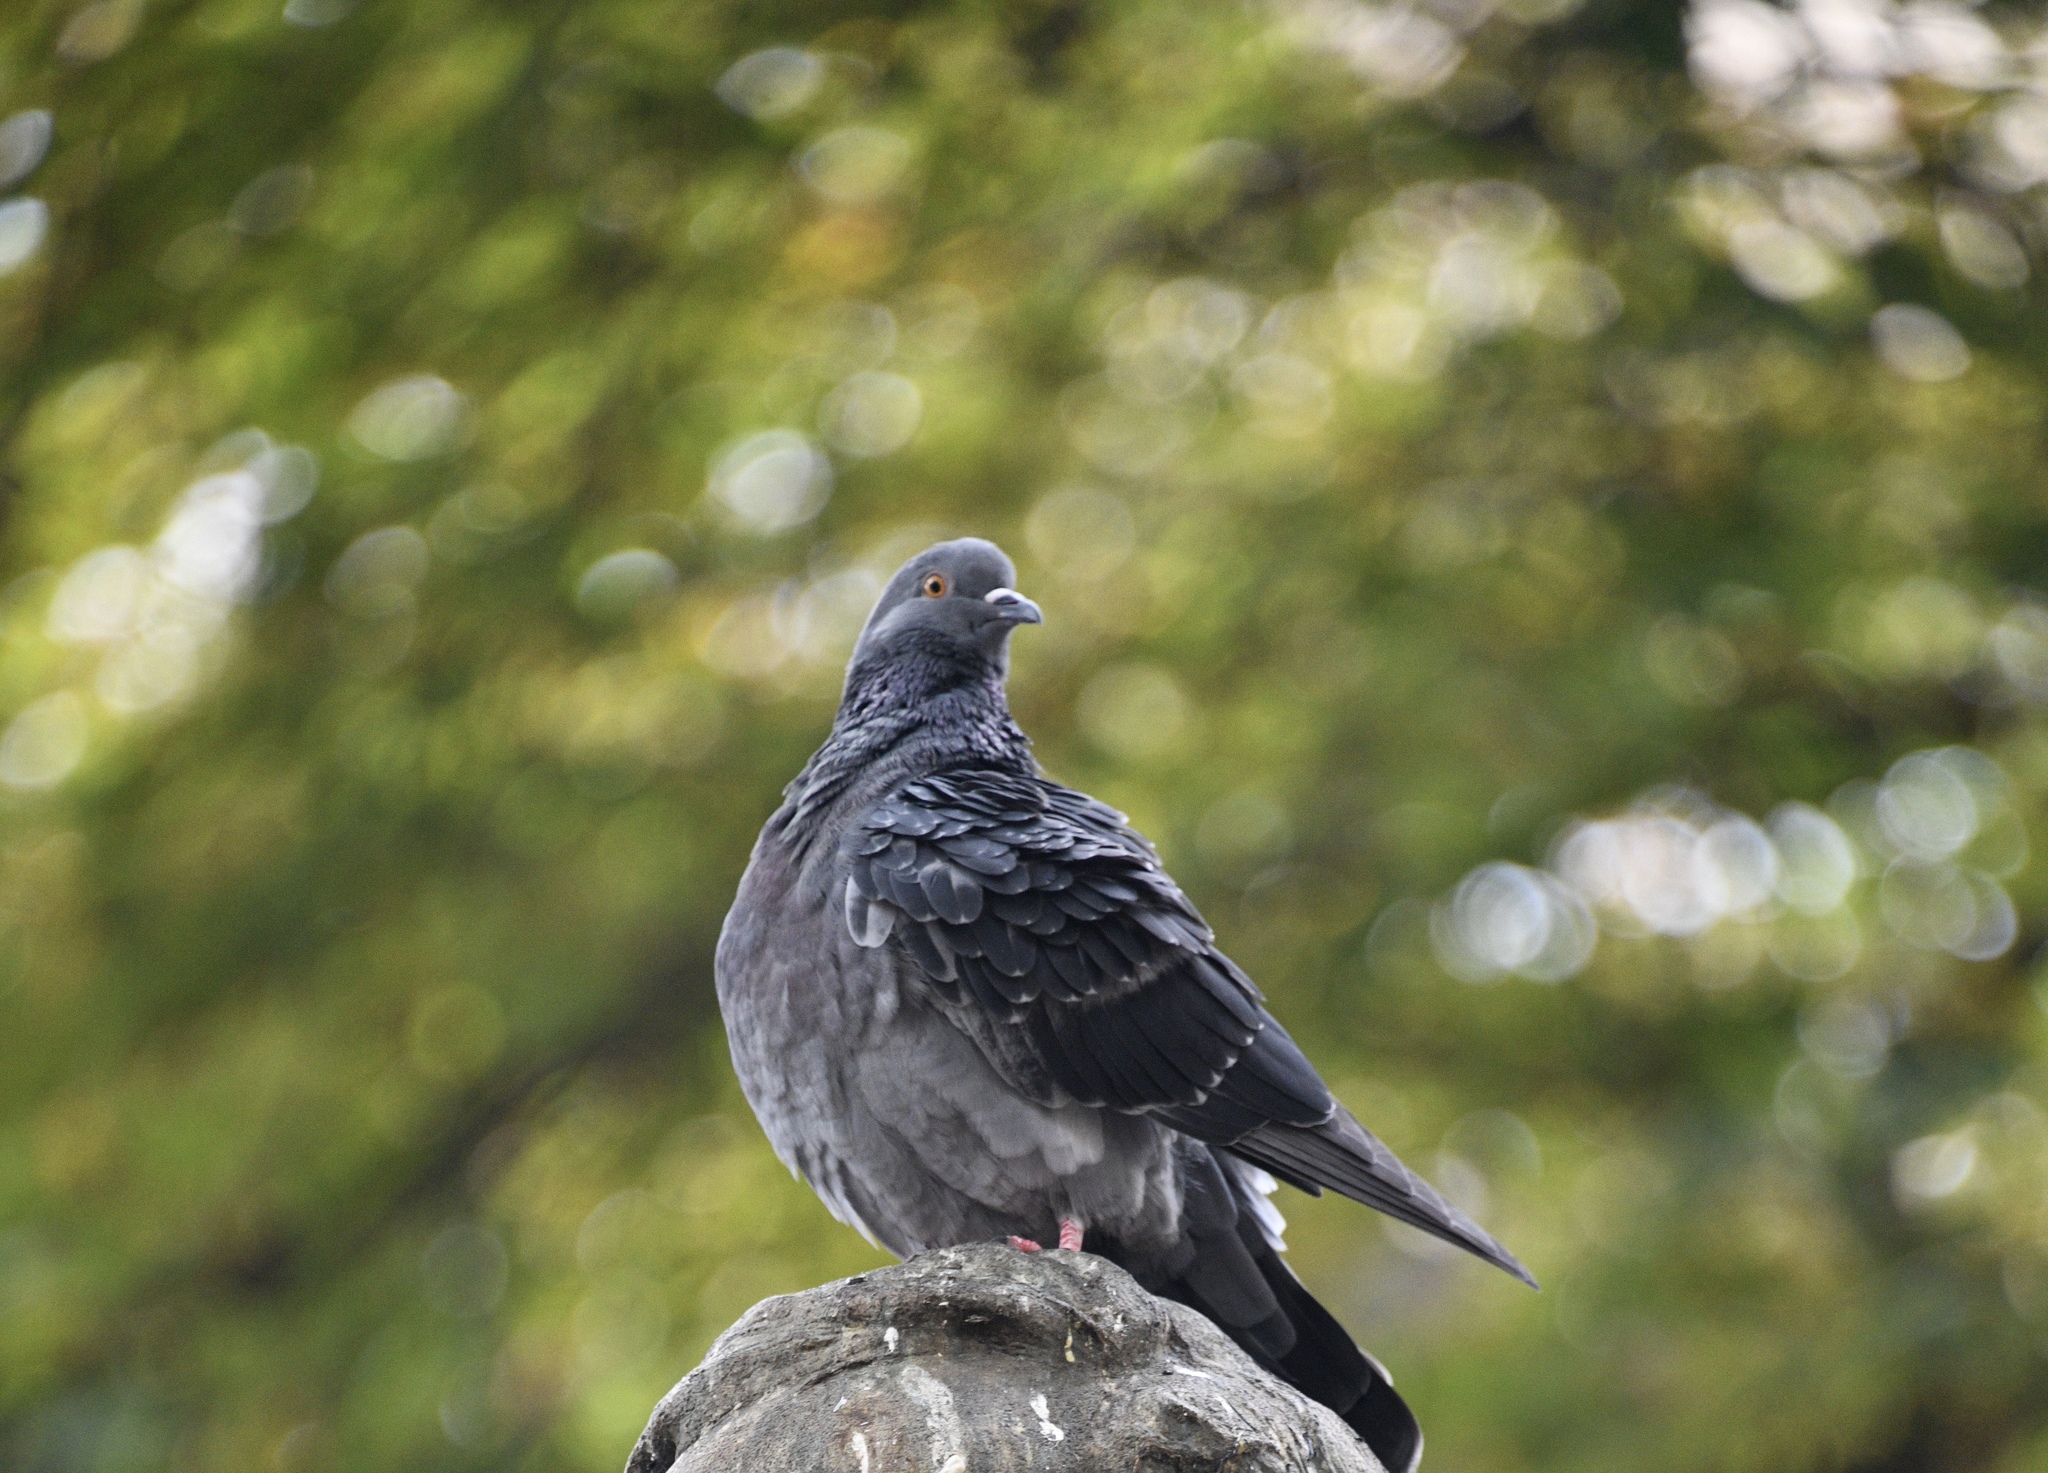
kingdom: Animalia
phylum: Chordata
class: Aves
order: Columbiformes
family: Columbidae
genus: Columba
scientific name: Columba livia
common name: Rock pigeon
